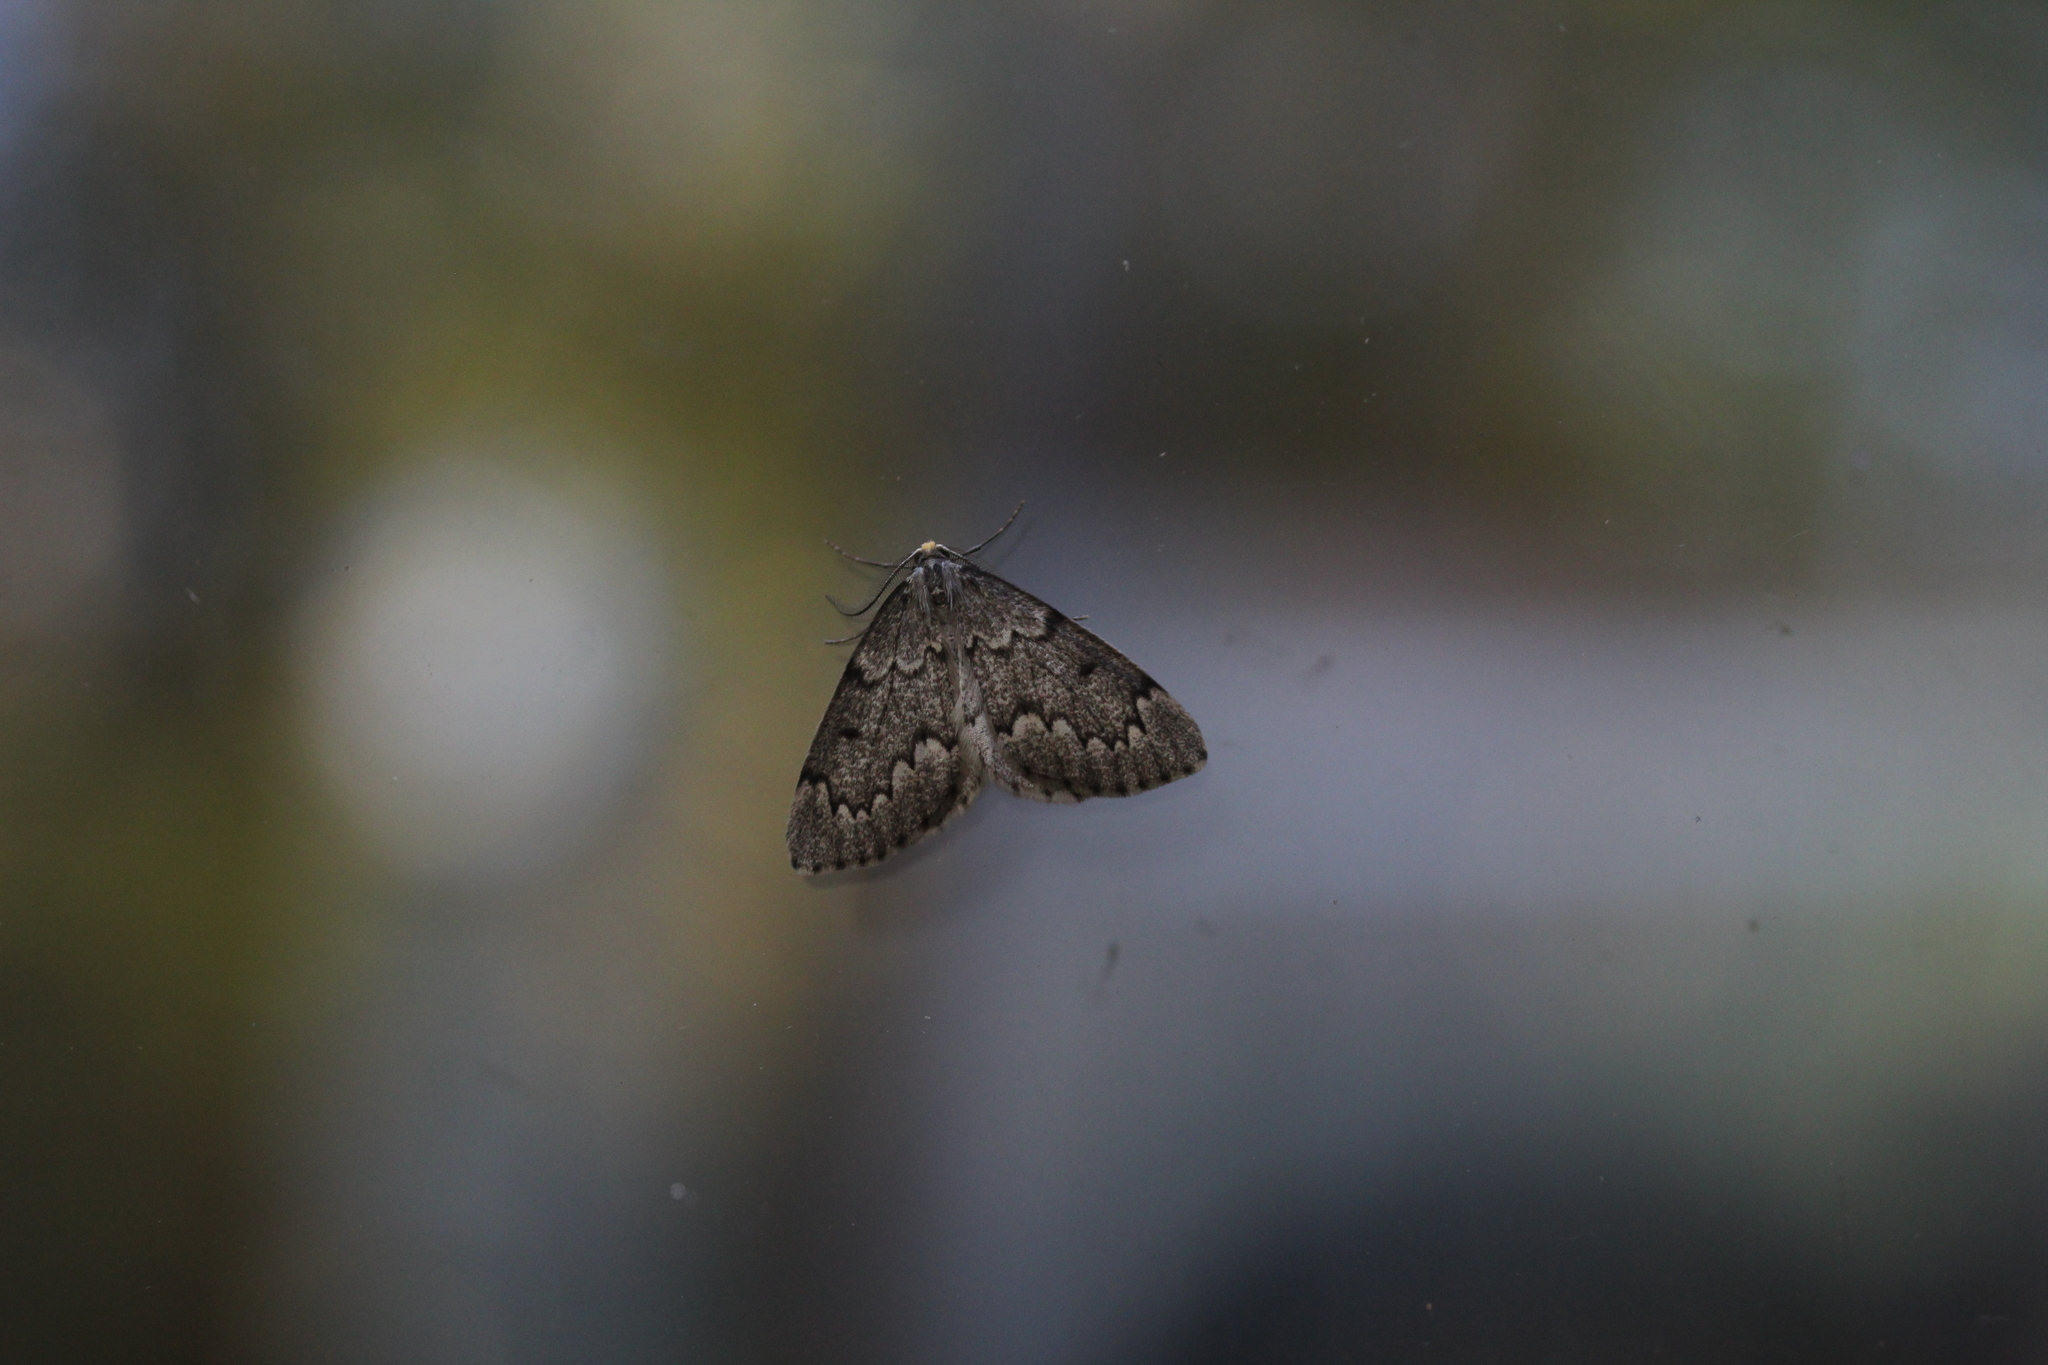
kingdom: Animalia
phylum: Arthropoda
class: Insecta
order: Lepidoptera
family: Geometridae
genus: Nepytia
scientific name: Nepytia canosaria
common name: False hemlock looper
